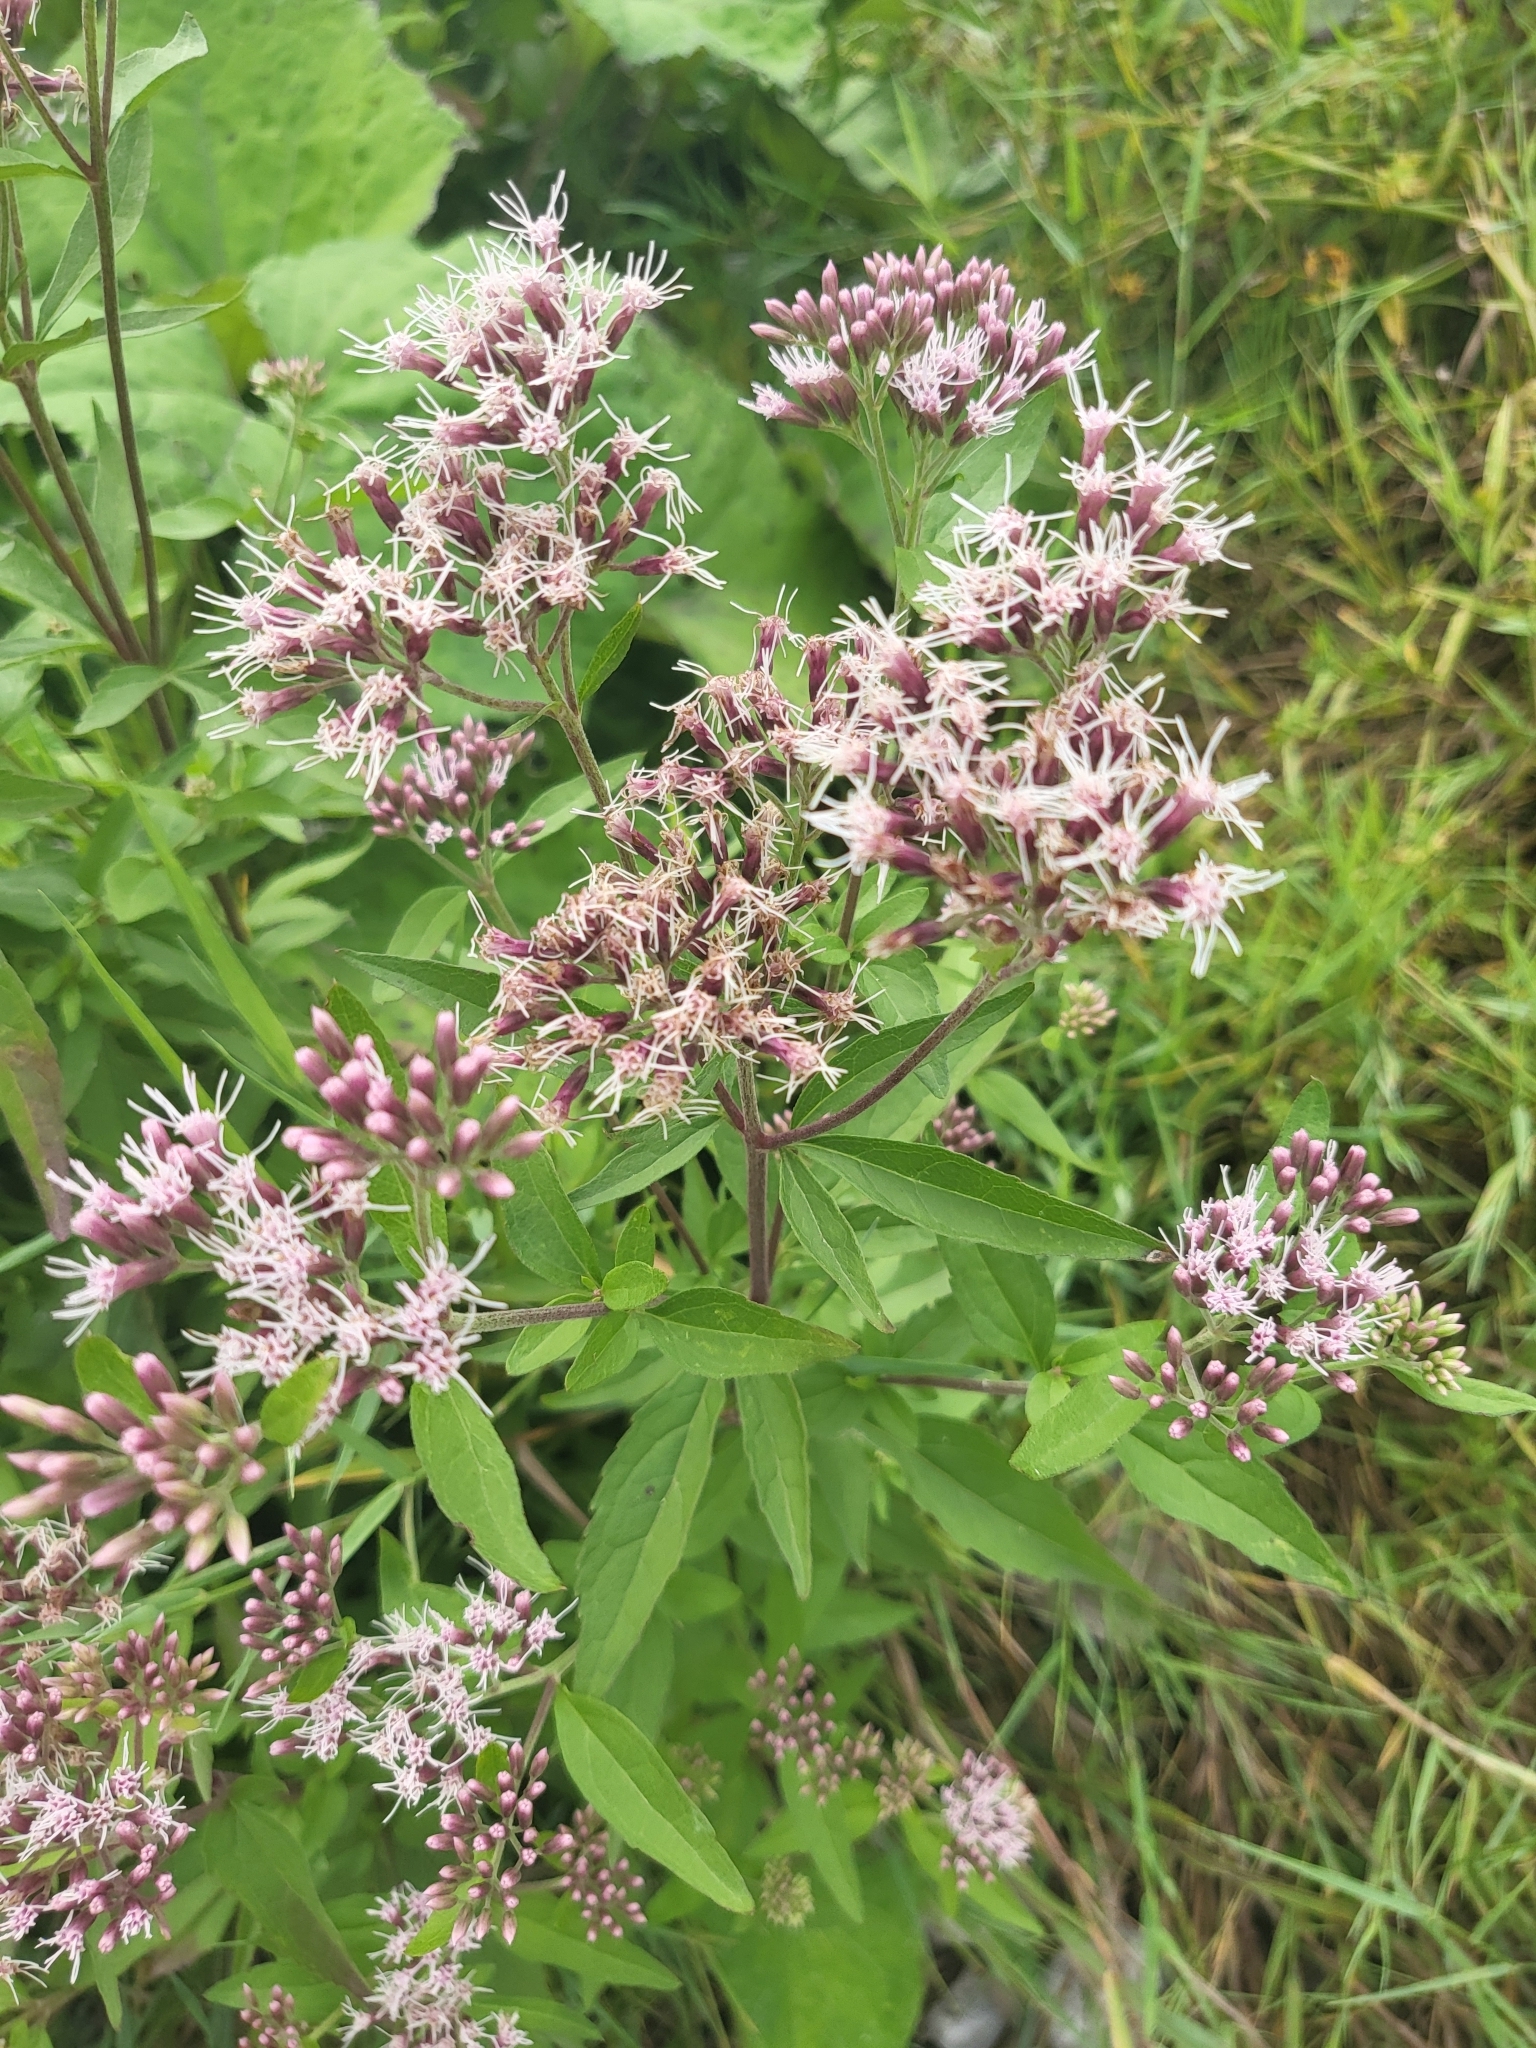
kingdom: Plantae
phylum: Tracheophyta
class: Magnoliopsida
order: Asterales
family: Asteraceae
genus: Eupatorium
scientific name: Eupatorium cannabinum
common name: Hemp-agrimony
